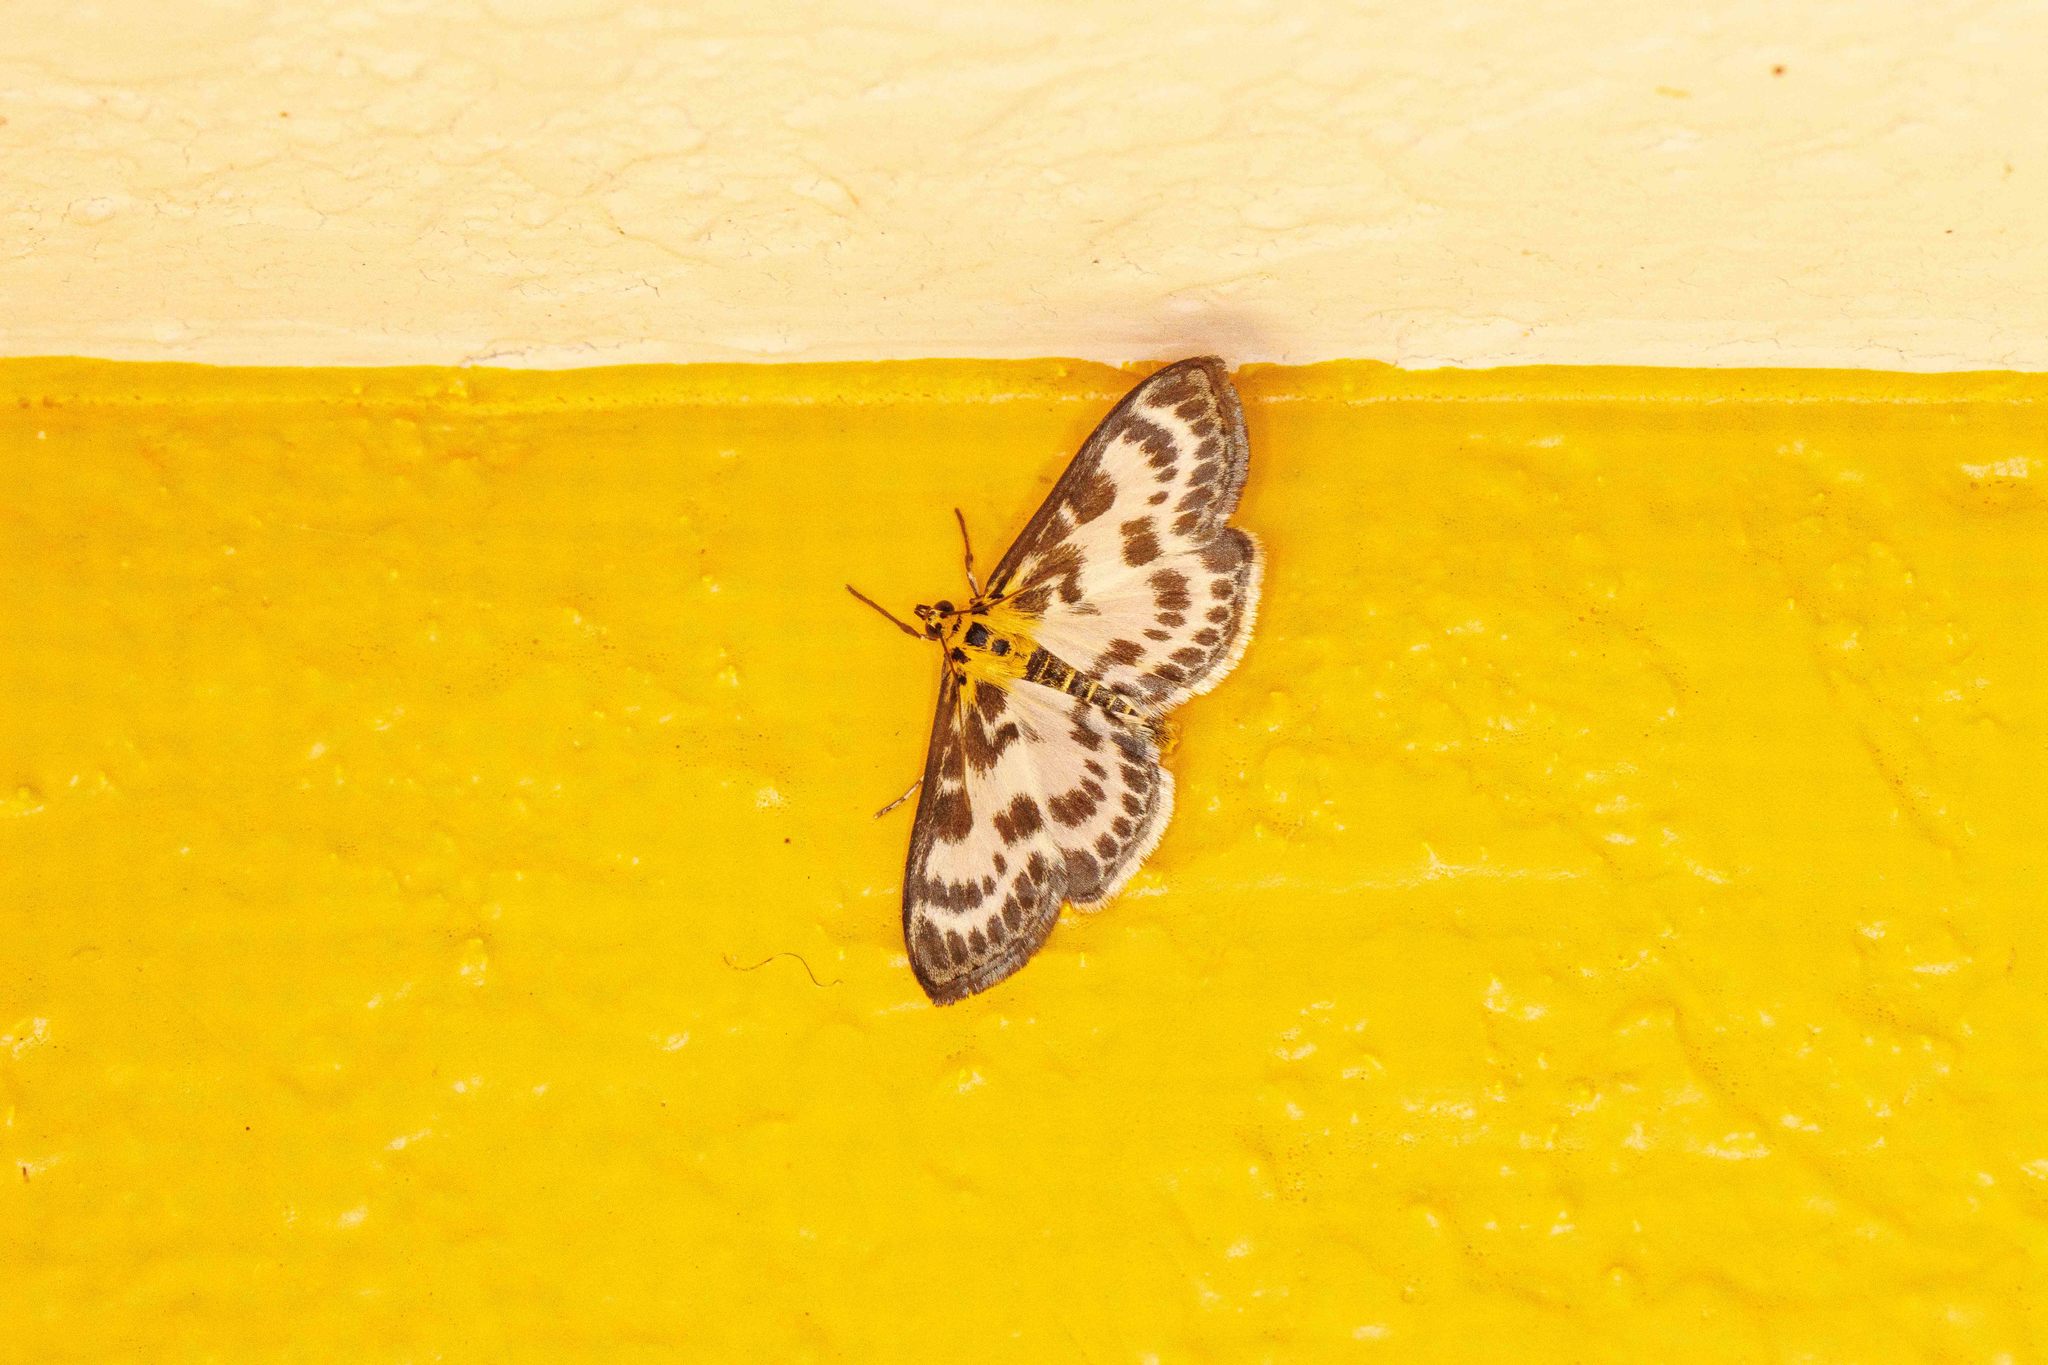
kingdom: Animalia
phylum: Arthropoda
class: Insecta
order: Lepidoptera
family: Crambidae
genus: Anania
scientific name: Anania hortulata
